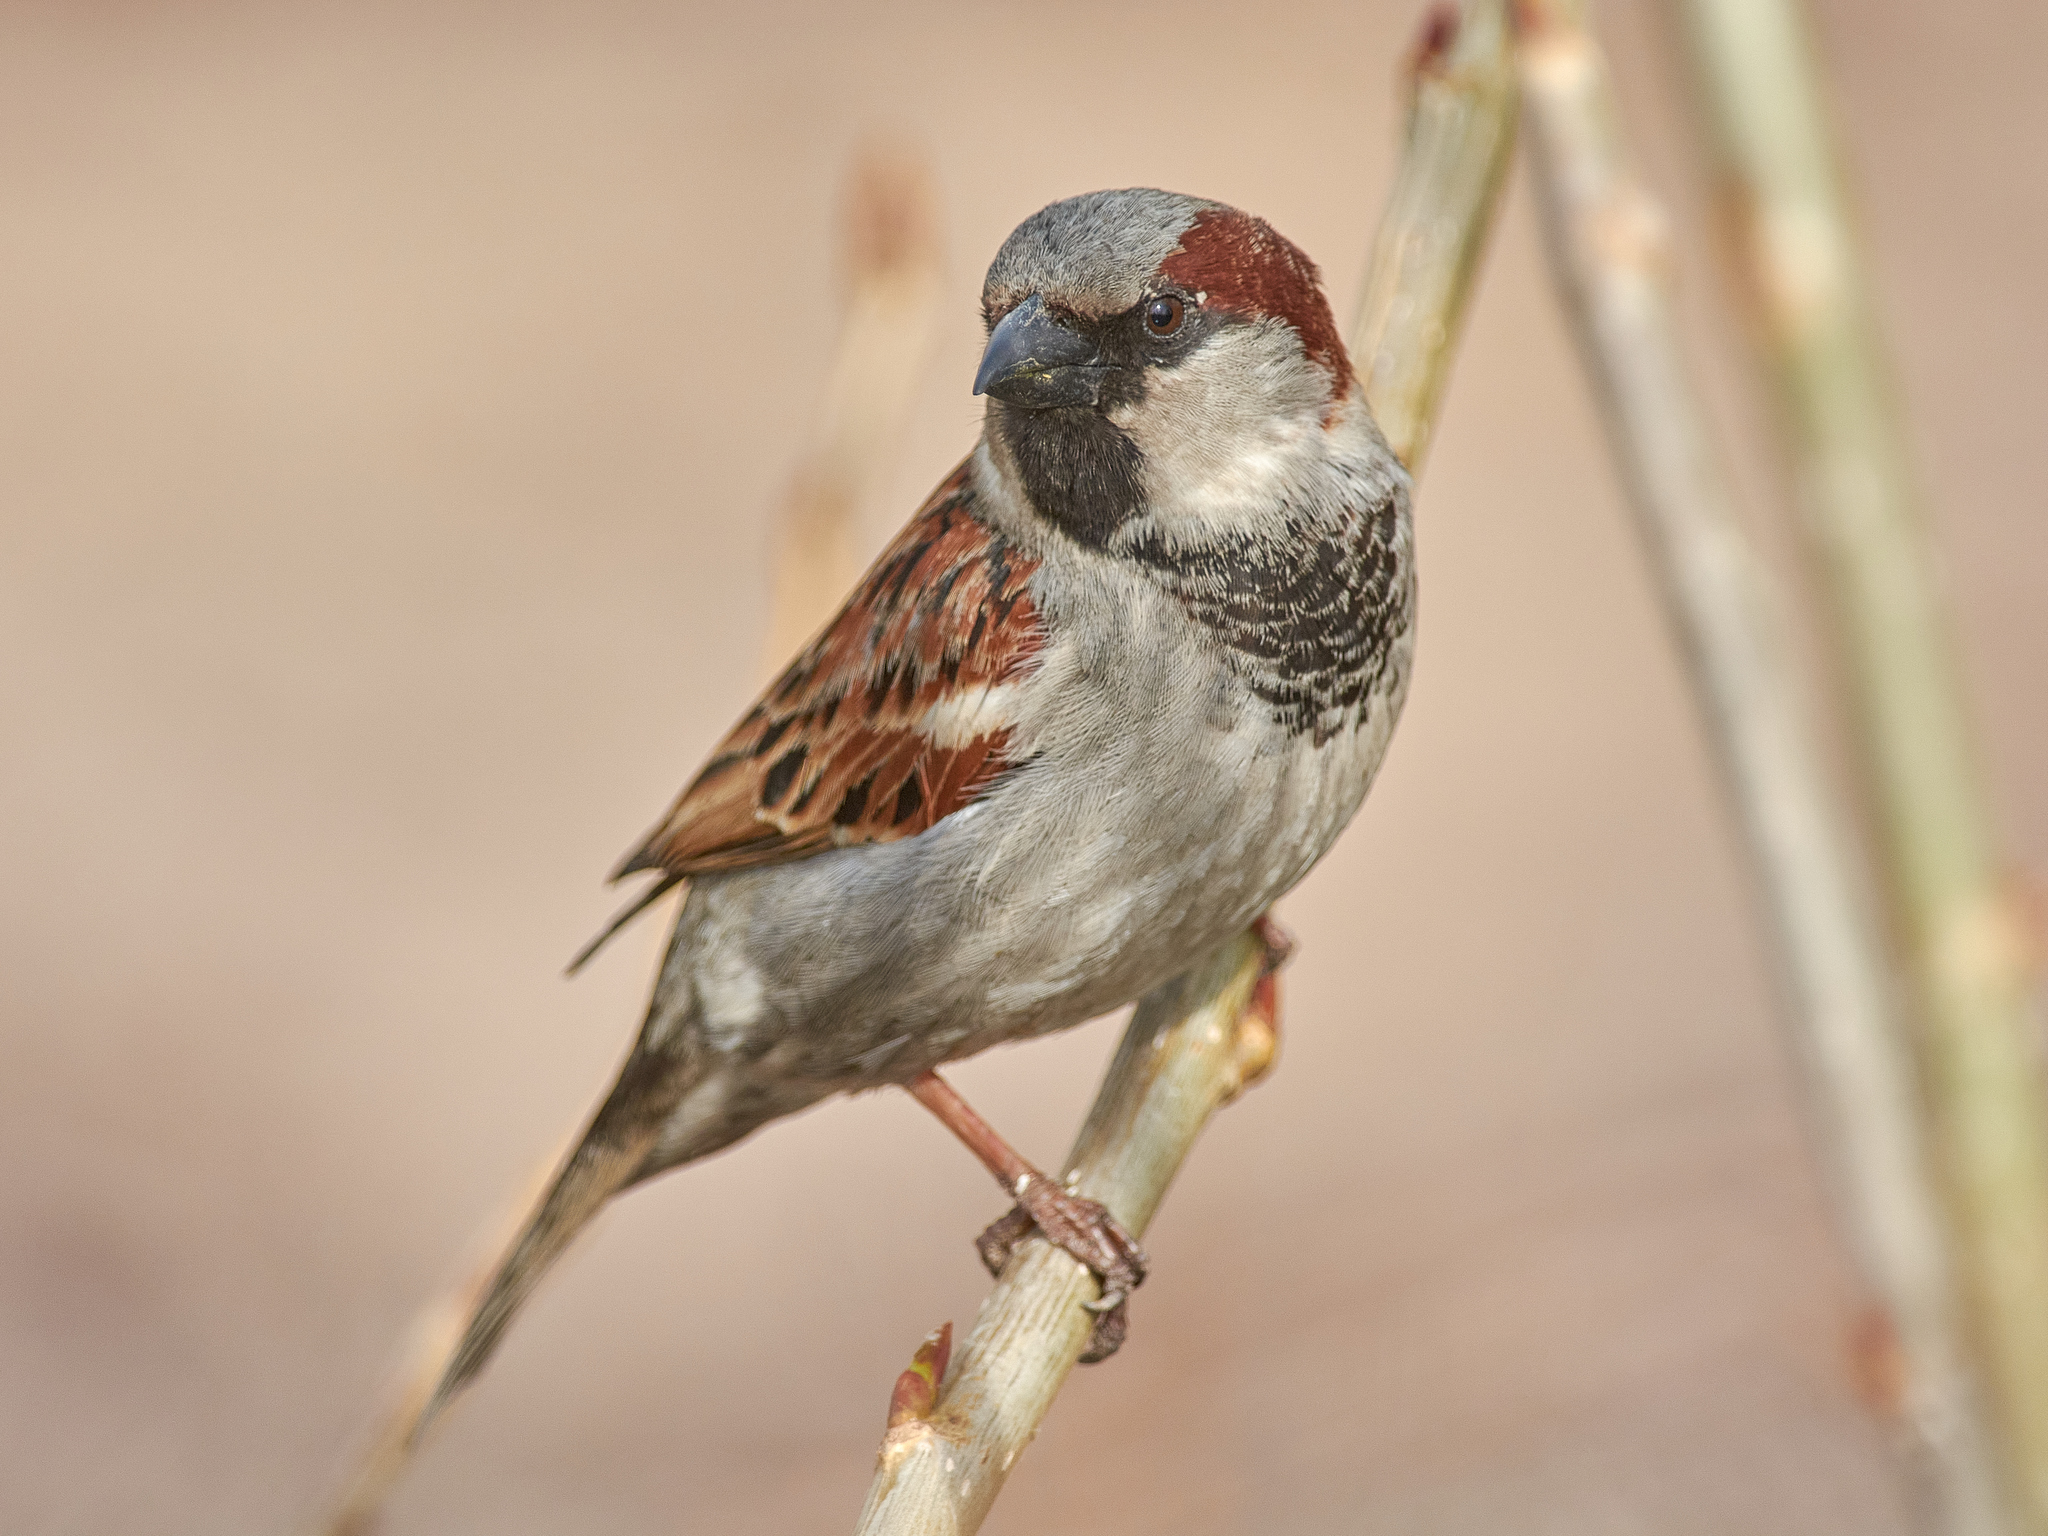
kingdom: Animalia
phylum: Chordata
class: Aves
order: Passeriformes
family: Passeridae
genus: Passer
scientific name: Passer domesticus
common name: House sparrow
